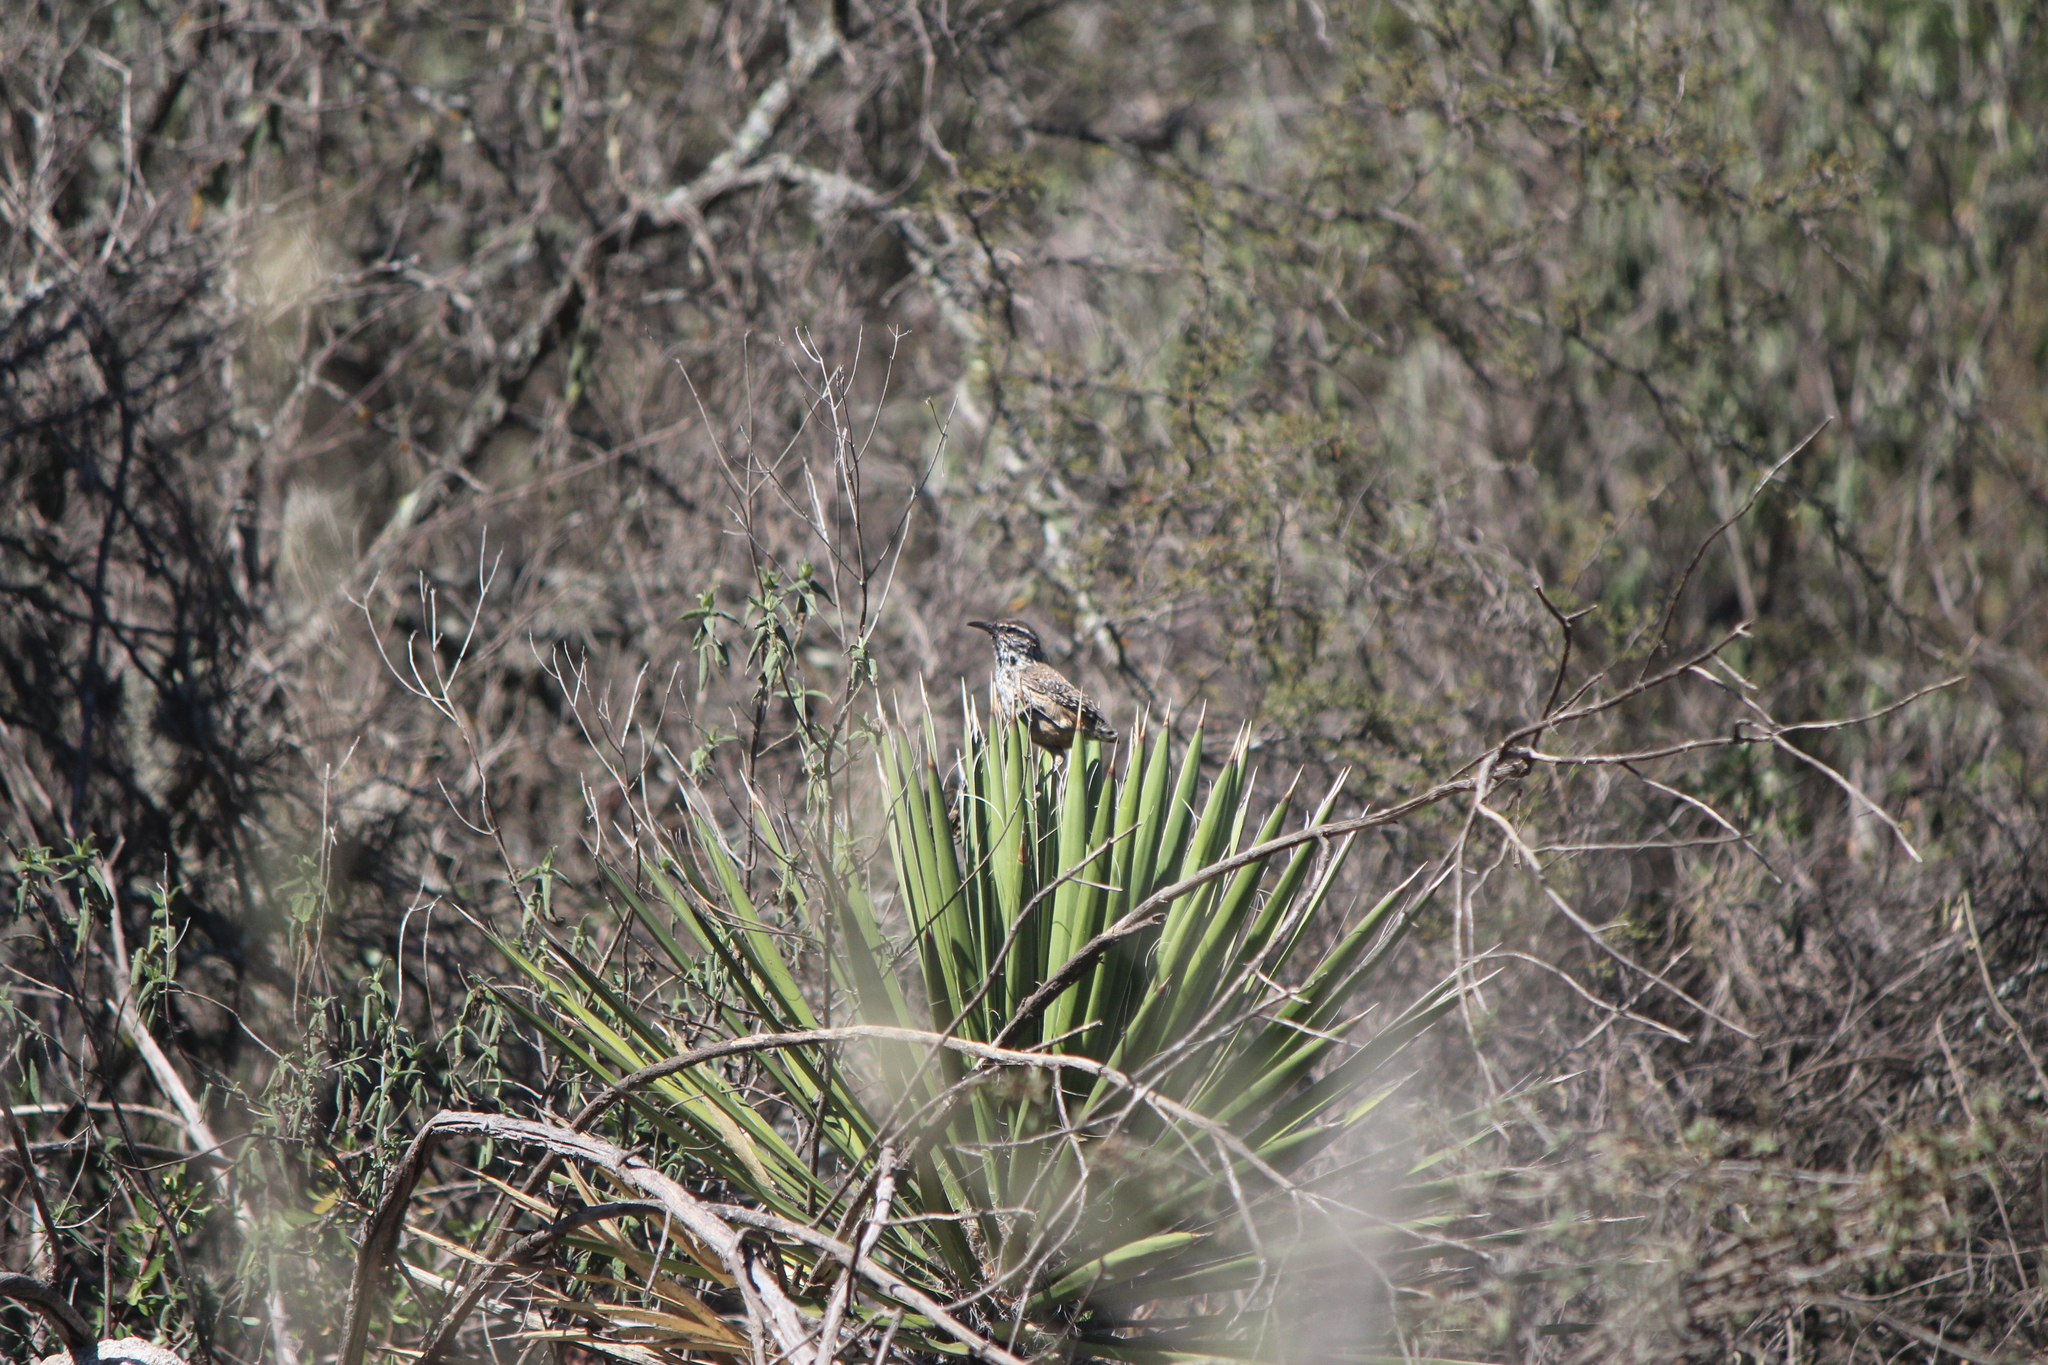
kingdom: Animalia
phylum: Chordata
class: Aves
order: Passeriformes
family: Troglodytidae
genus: Campylorhynchus
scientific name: Campylorhynchus brunneicapillus
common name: Cactus wren
